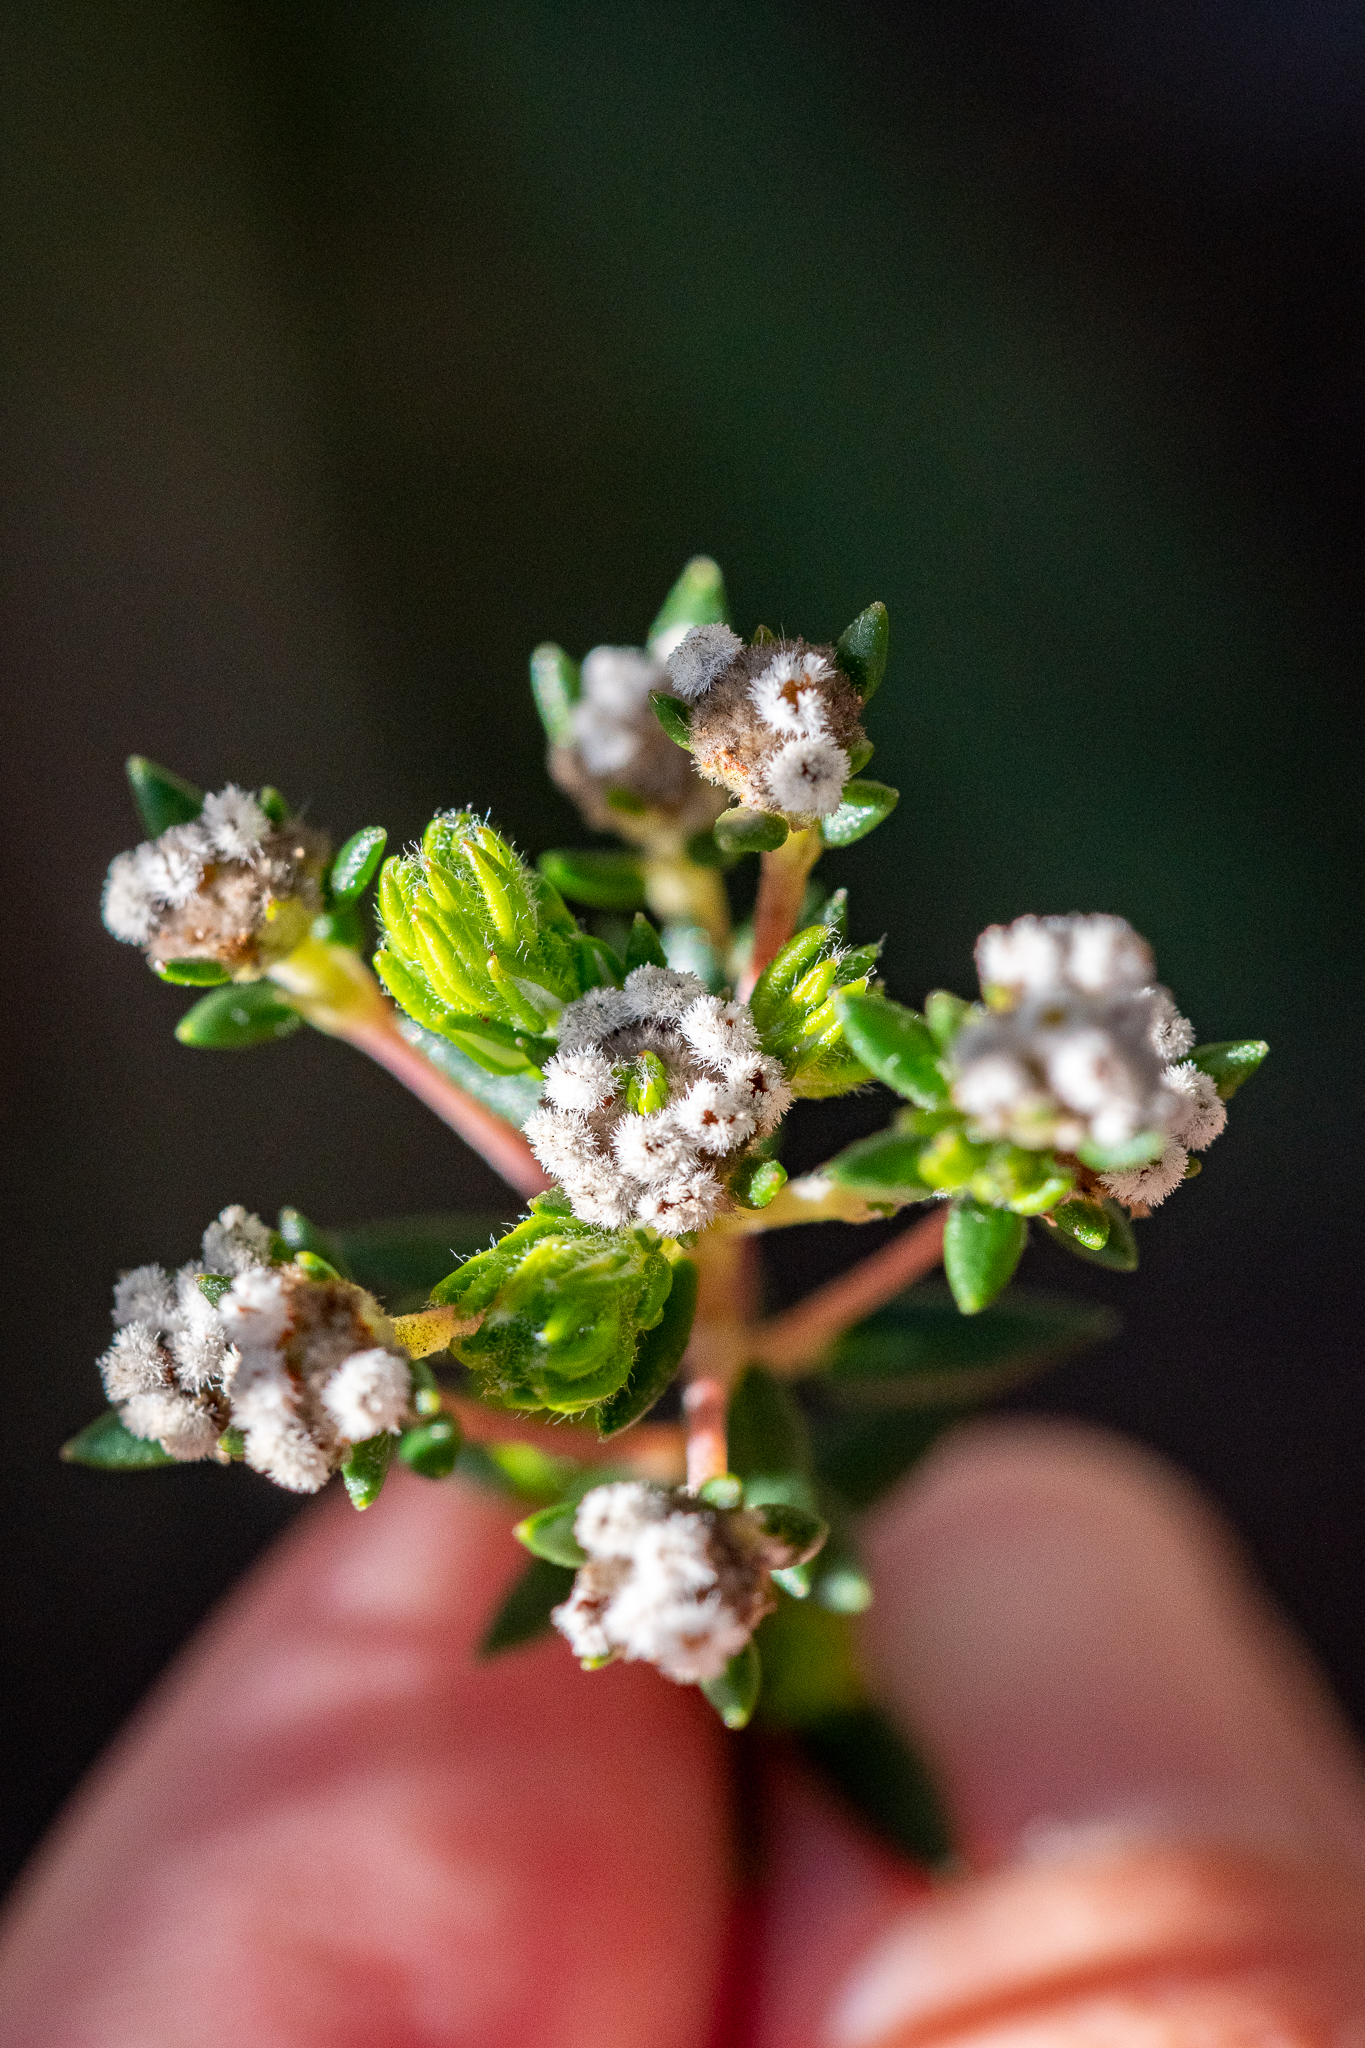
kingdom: Plantae
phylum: Tracheophyta
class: Magnoliopsida
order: Rosales
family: Rhamnaceae
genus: Phylica
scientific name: Phylica ericoides
